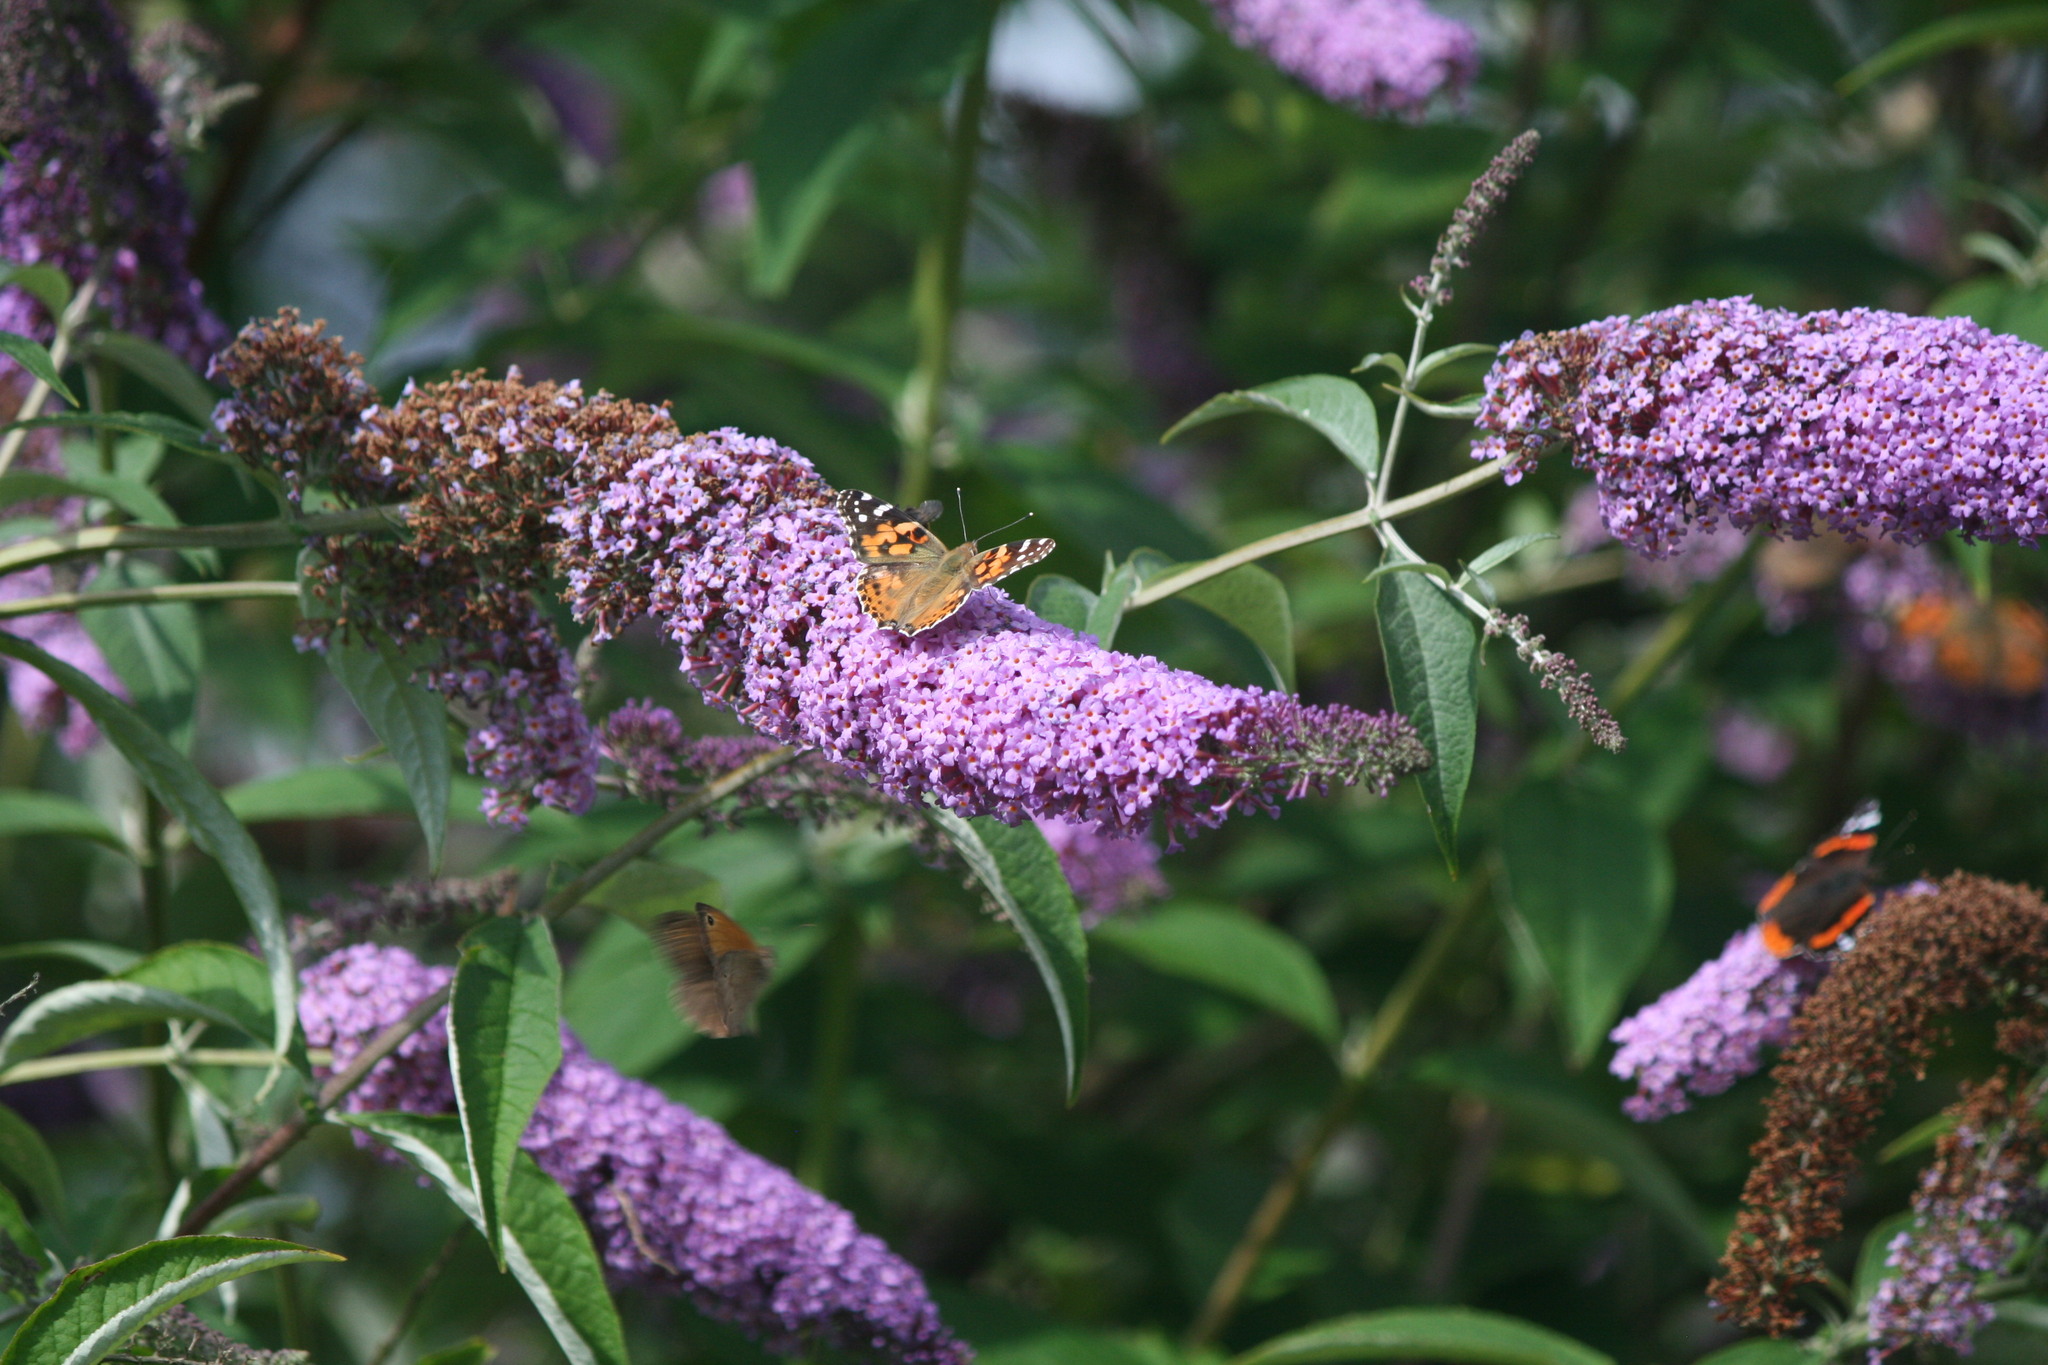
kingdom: Animalia
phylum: Arthropoda
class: Insecta
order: Lepidoptera
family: Nymphalidae
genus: Vanessa
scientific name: Vanessa cardui
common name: Painted lady
